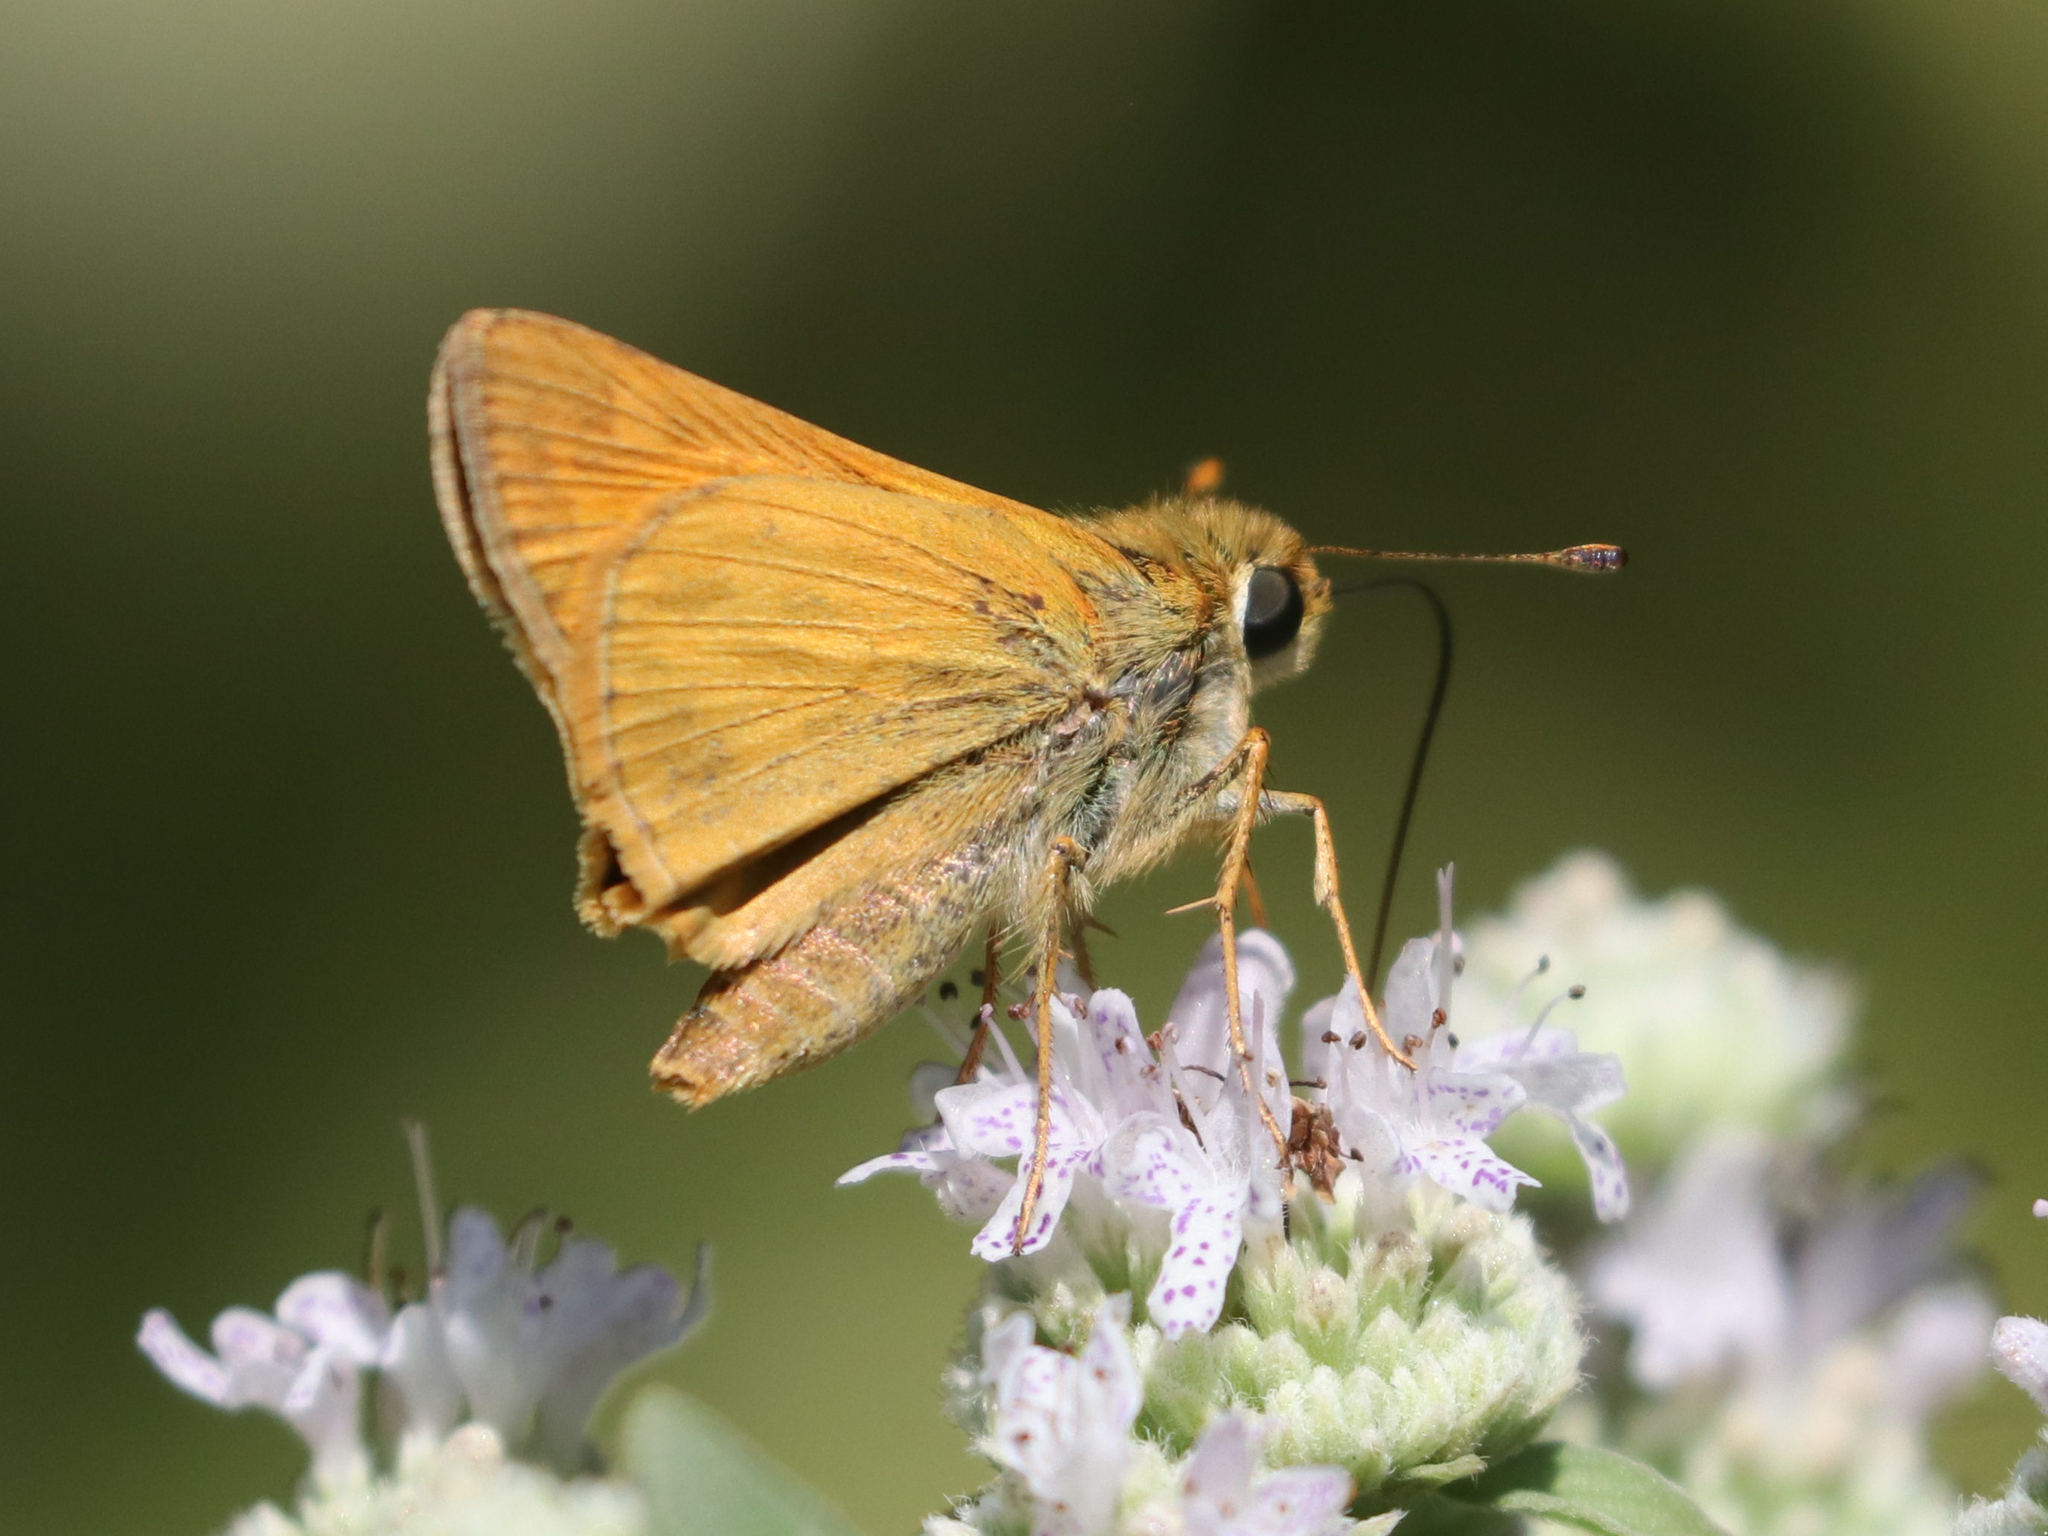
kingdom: Animalia
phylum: Arthropoda
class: Insecta
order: Lepidoptera
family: Hesperiidae
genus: Atalopedes
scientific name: Atalopedes
